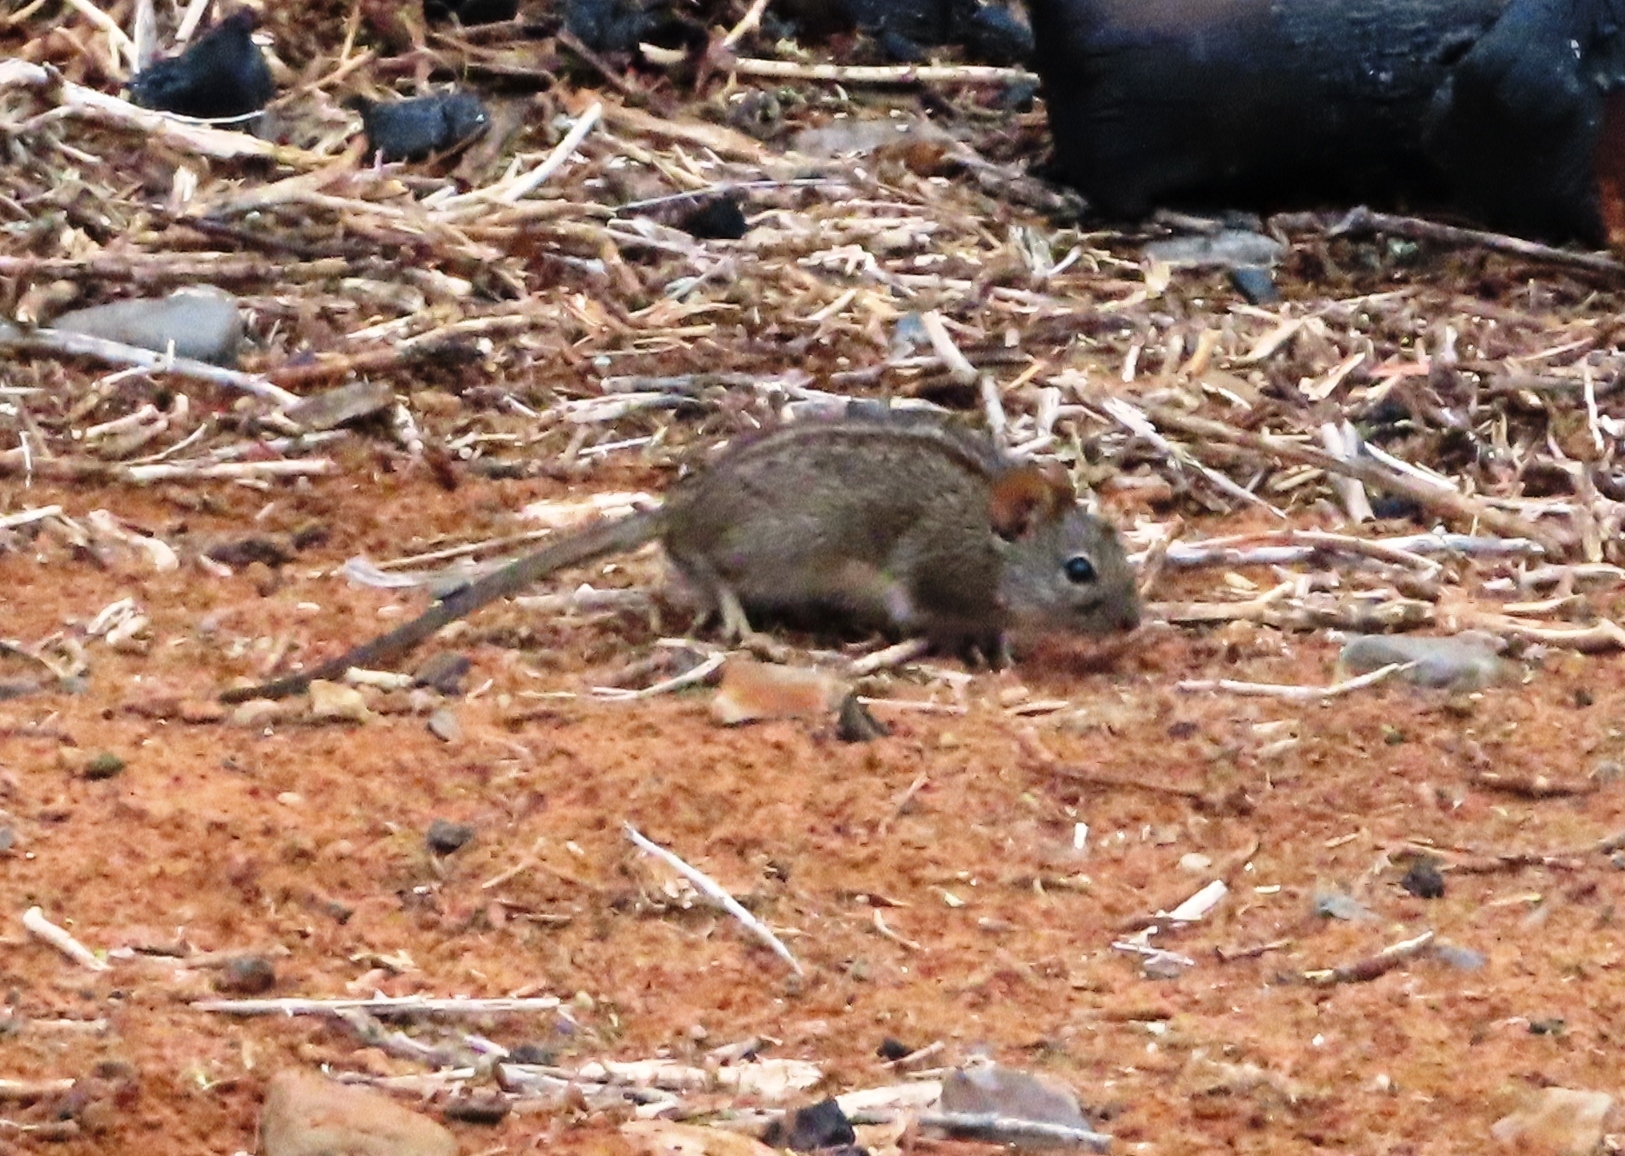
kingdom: Animalia
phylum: Chordata
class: Mammalia
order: Rodentia
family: Muridae
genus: Rhabdomys
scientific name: Rhabdomys pumilio
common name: Xeric four-striped grass rat
